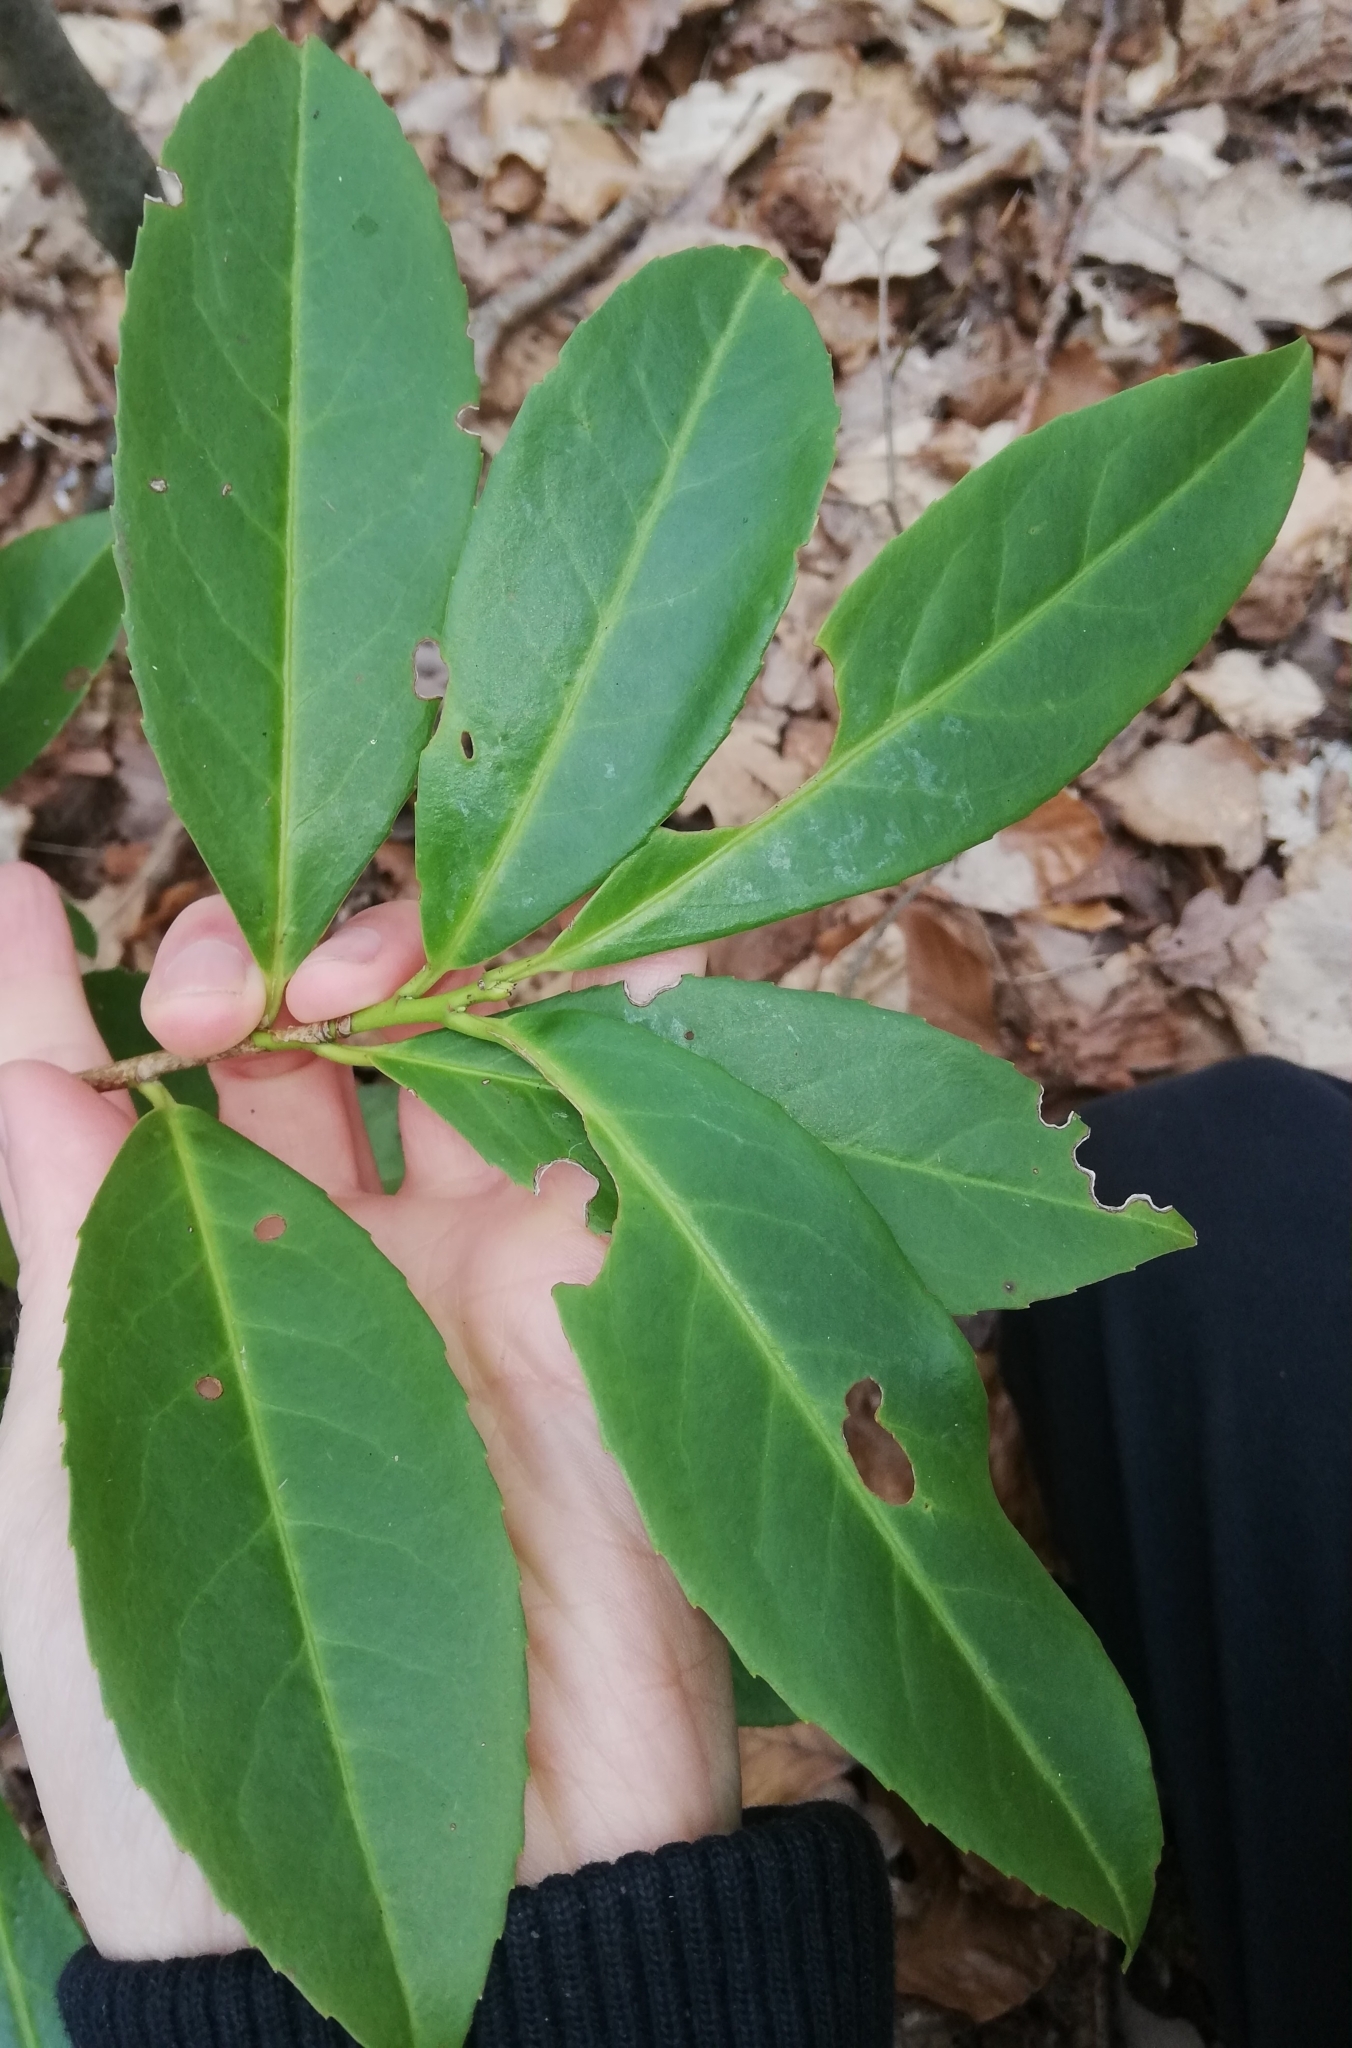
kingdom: Plantae
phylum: Tracheophyta
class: Magnoliopsida
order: Rosales
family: Rosaceae
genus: Prunus
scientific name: Prunus laurocerasus
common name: Cherry laurel
